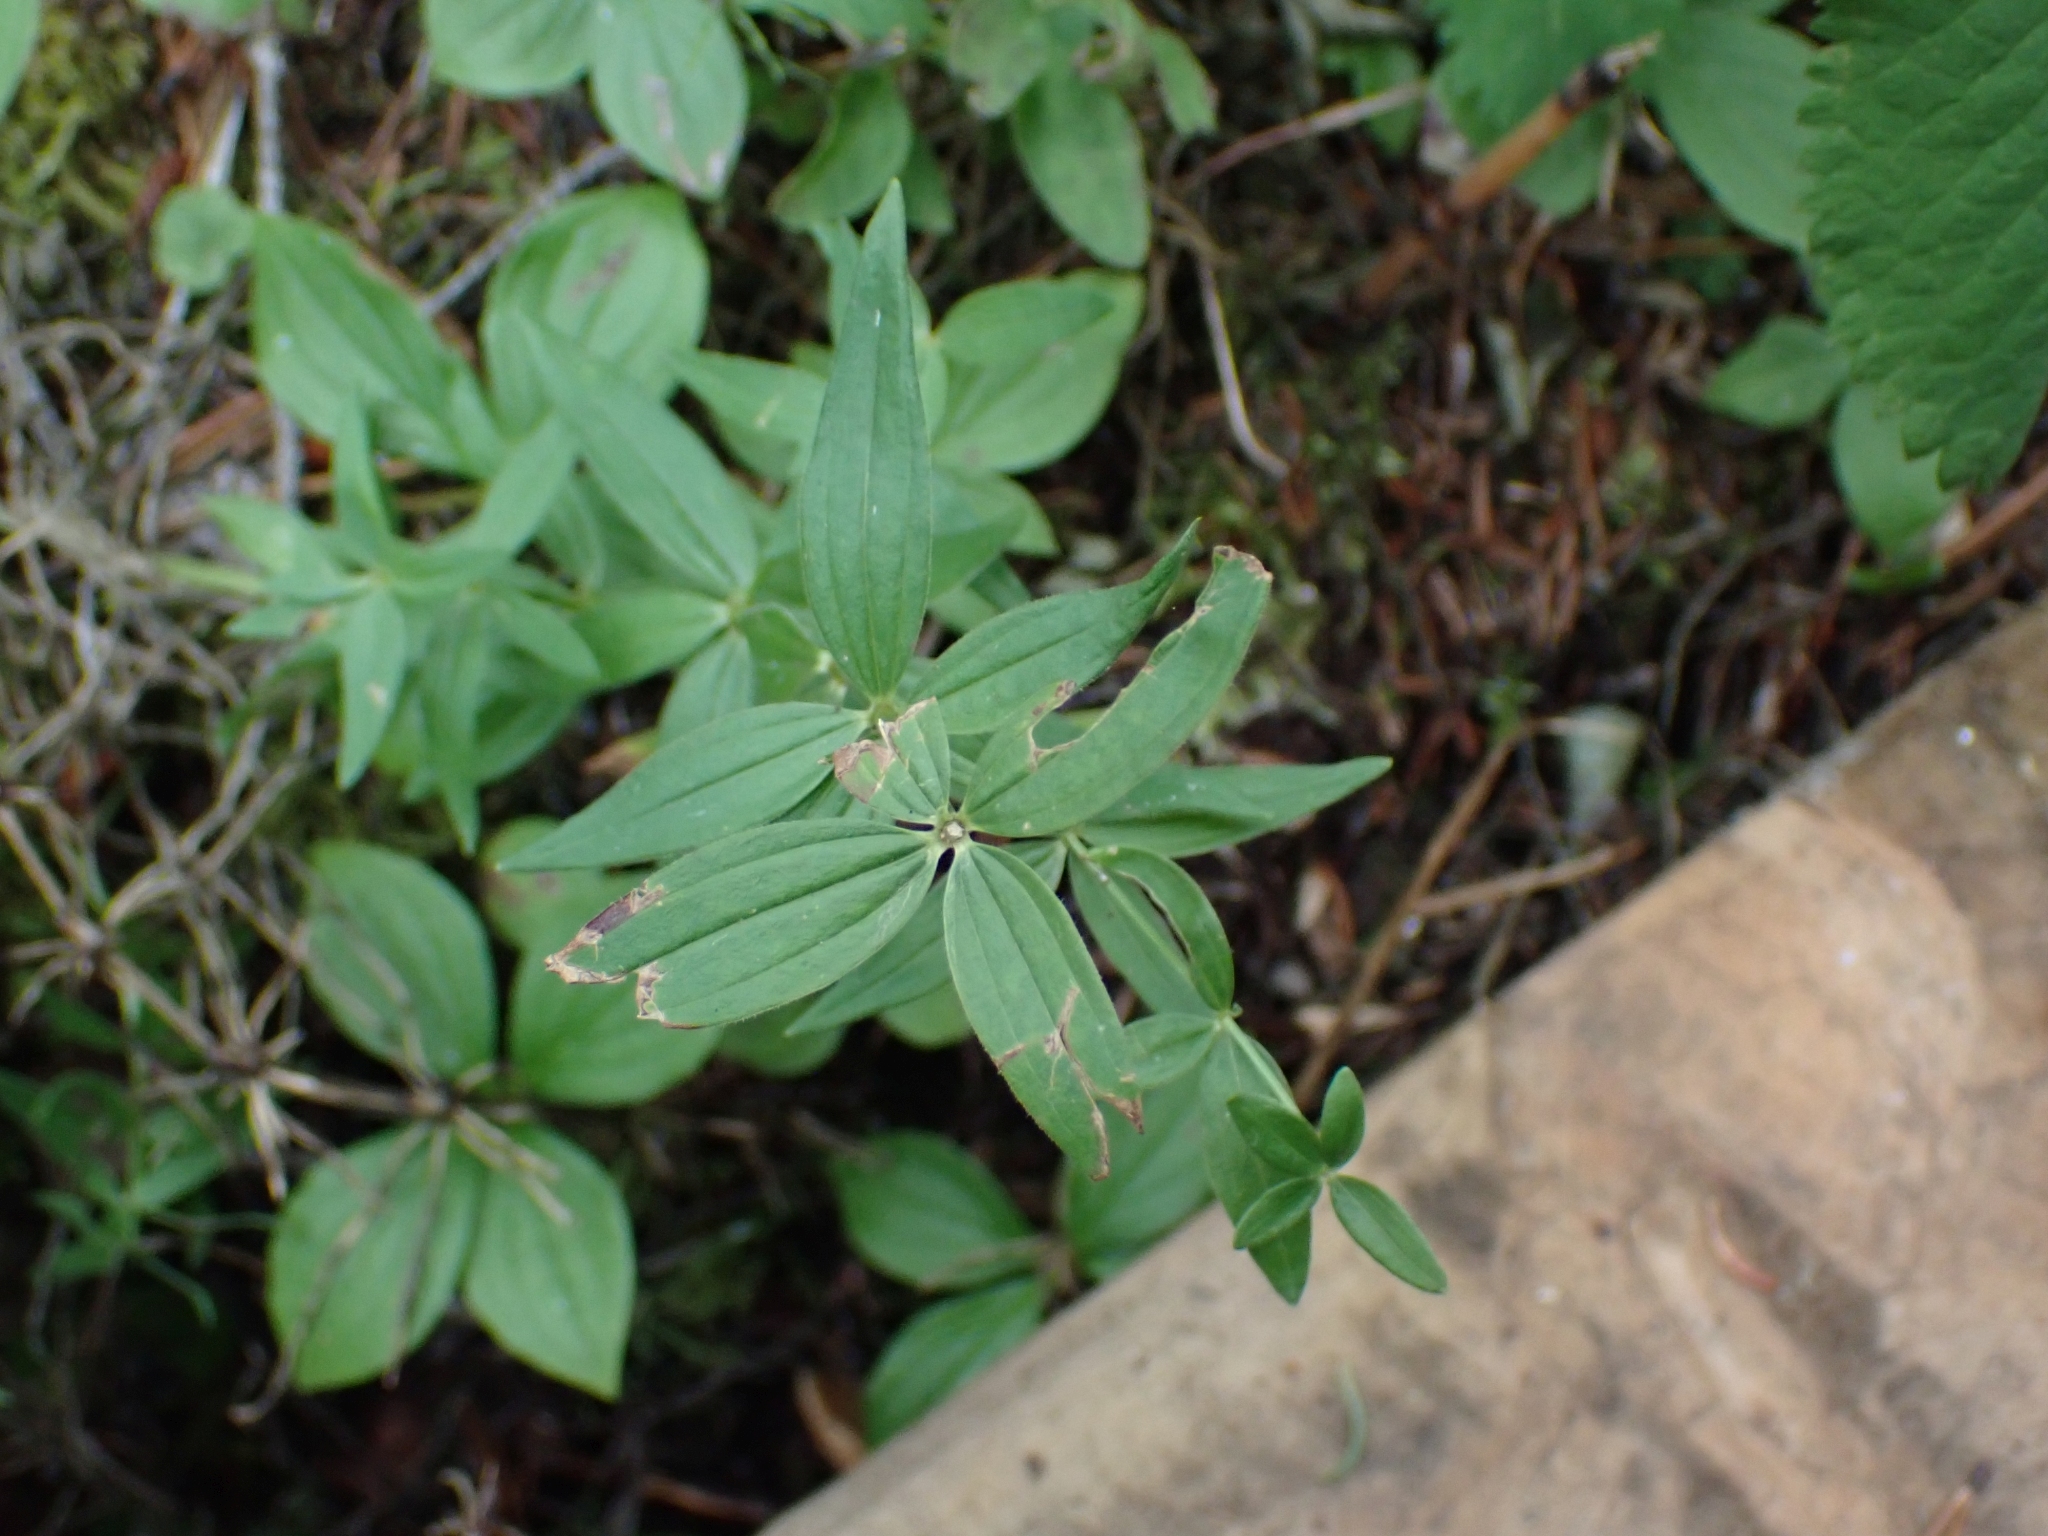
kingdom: Plantae
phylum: Tracheophyta
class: Magnoliopsida
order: Gentianales
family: Rubiaceae
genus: Galium
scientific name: Galium boreale
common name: Northern bedstraw
